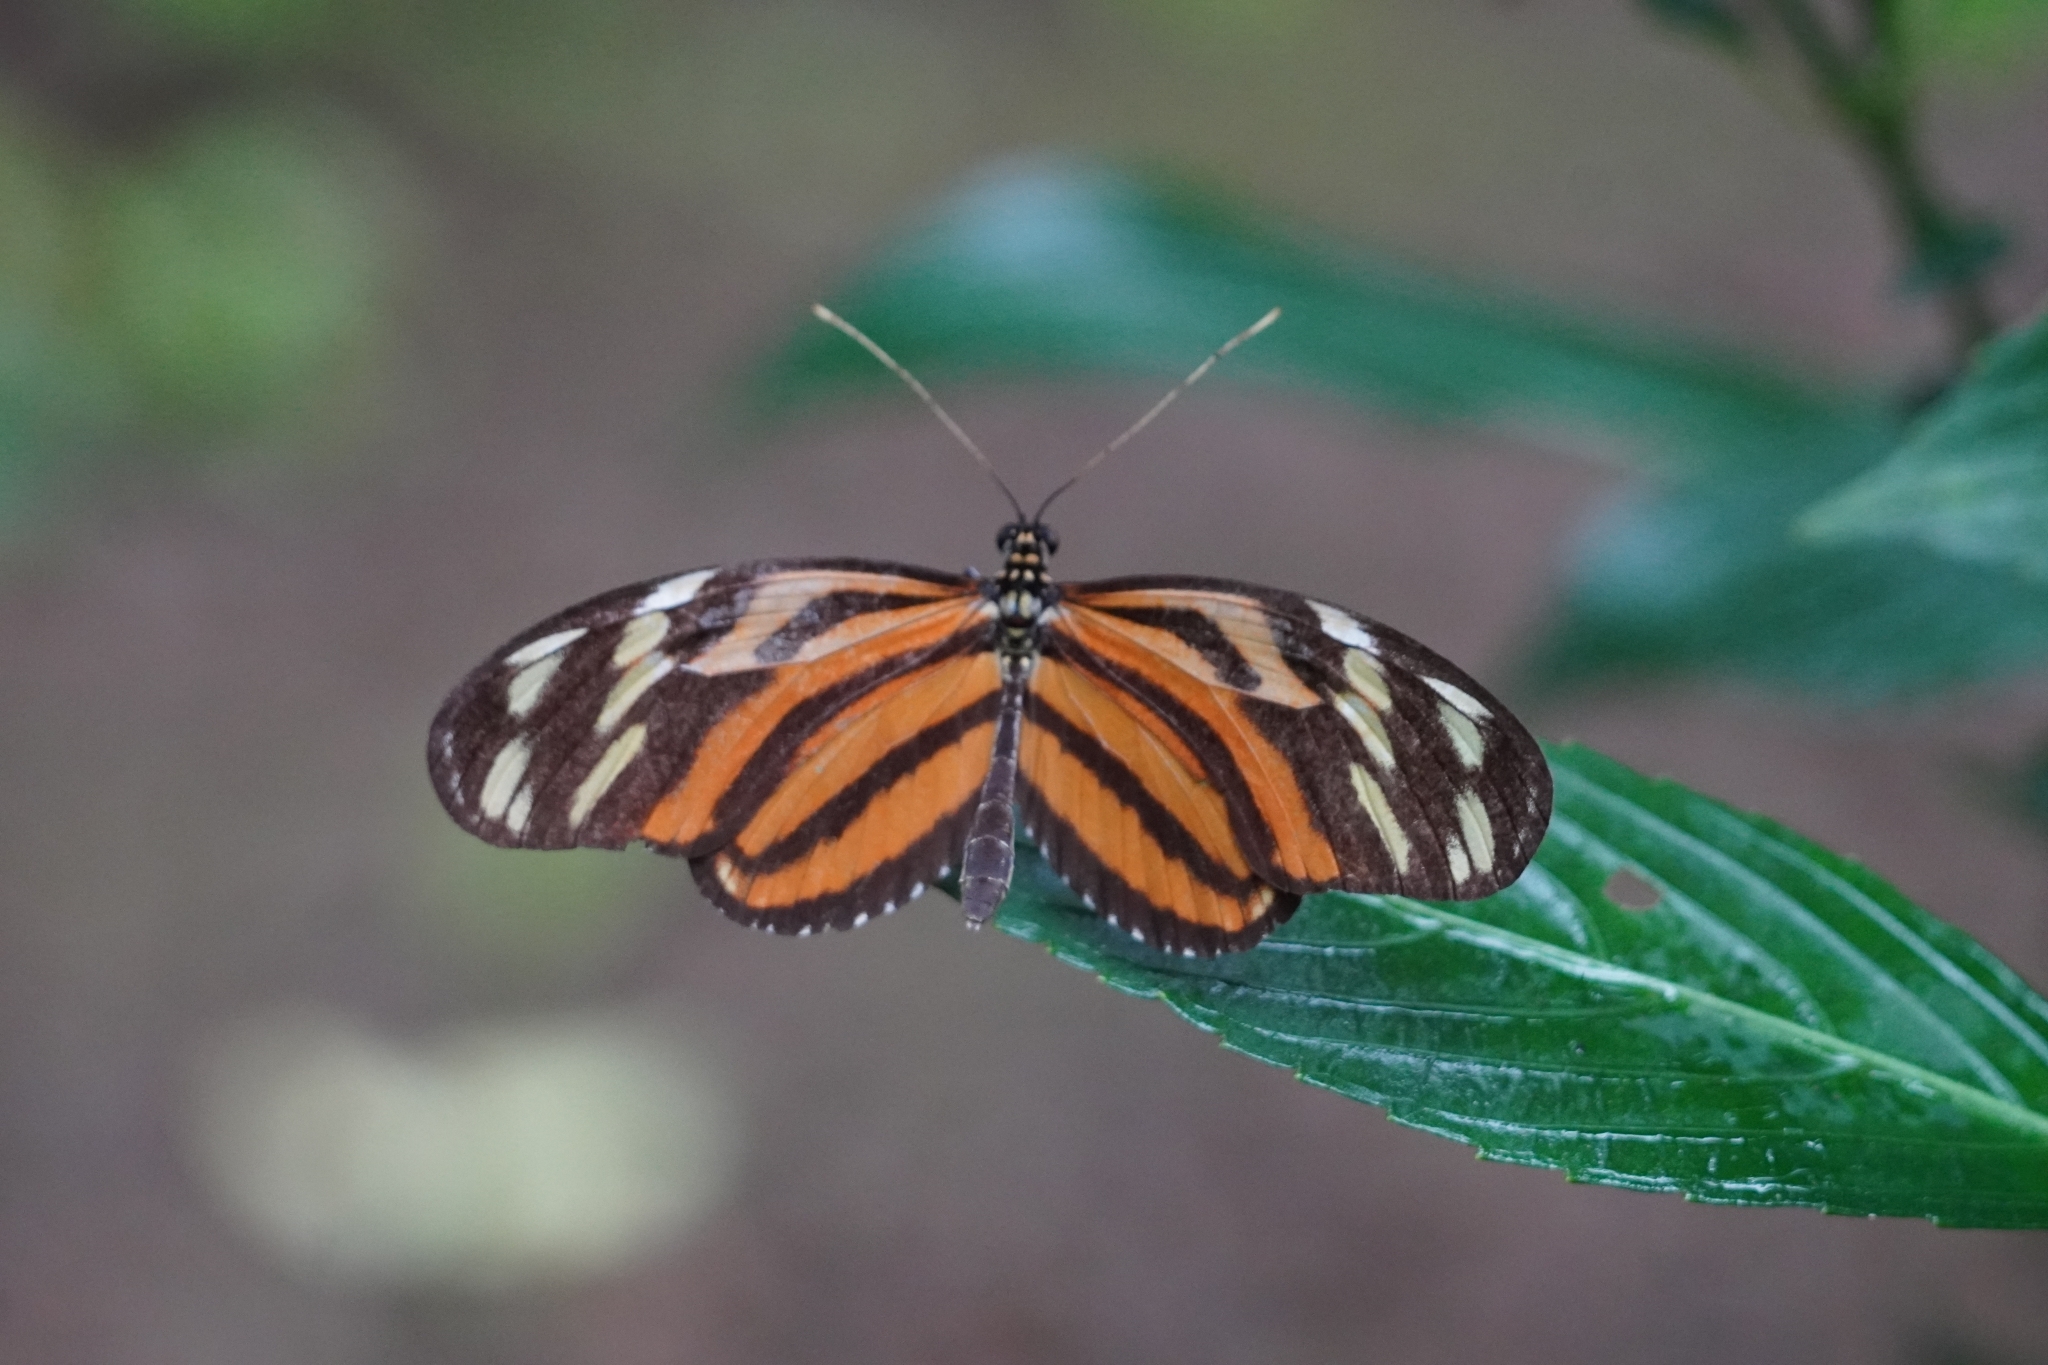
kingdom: Animalia
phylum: Arthropoda
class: Insecta
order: Lepidoptera
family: Nymphalidae
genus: Heliconius
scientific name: Heliconius ismenius
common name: Ismenius tiger
